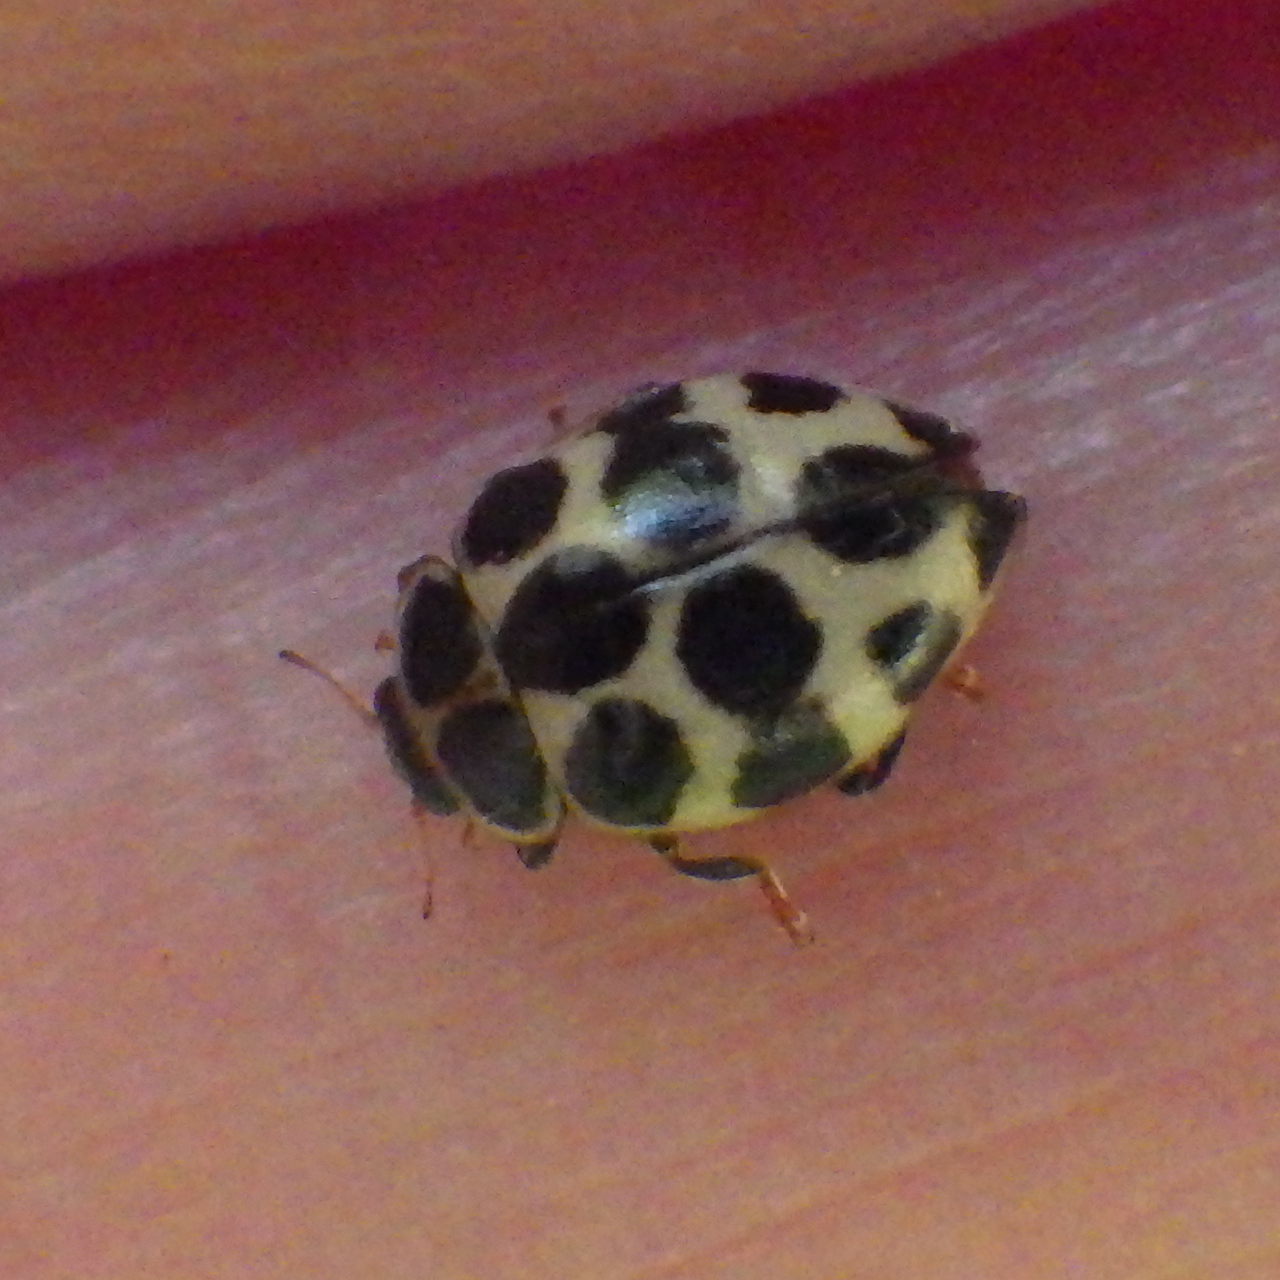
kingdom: Animalia
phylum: Arthropoda
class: Insecta
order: Coleoptera
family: Coccinellidae
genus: Calvia
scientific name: Calvia quatuordecimguttata
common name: Cream-spot ladybird
